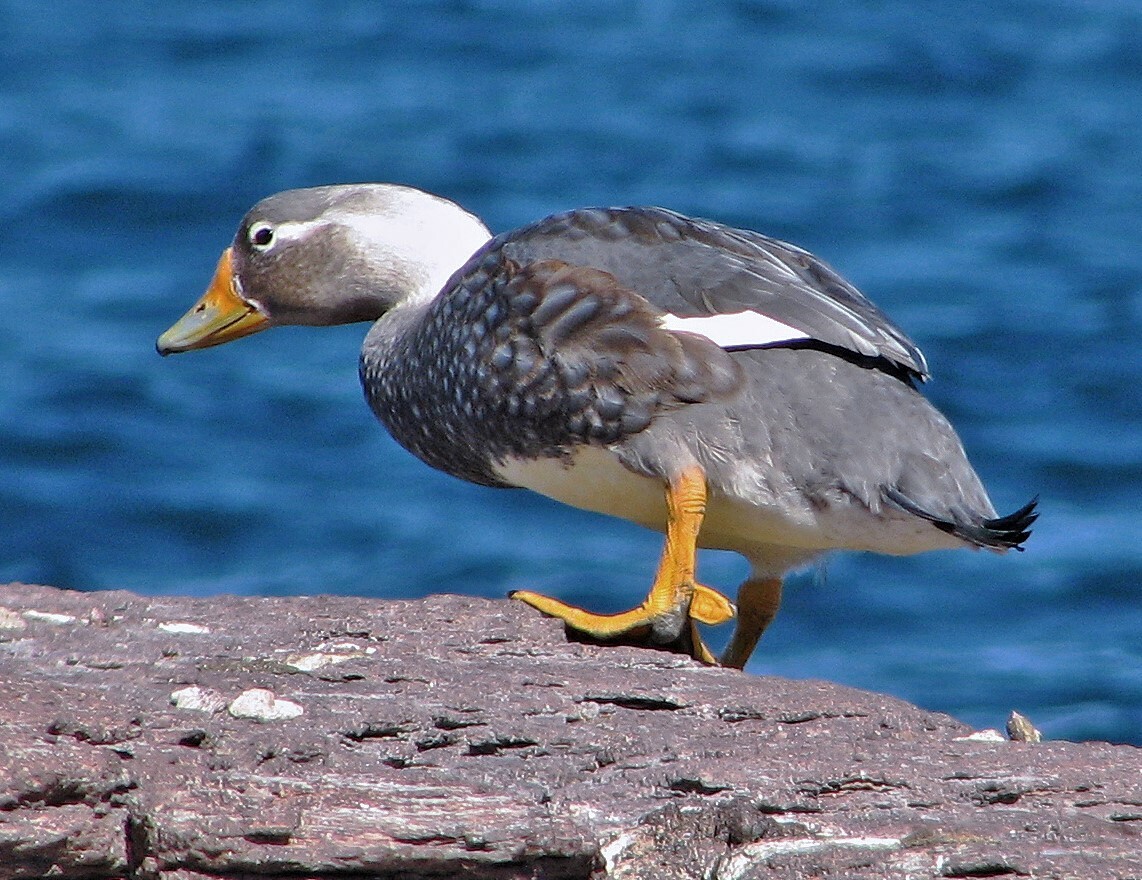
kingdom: Animalia
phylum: Chordata
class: Aves
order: Anseriformes
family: Anatidae
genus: Tachyeres
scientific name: Tachyeres leucocephalus
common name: Chubut steamer duck
